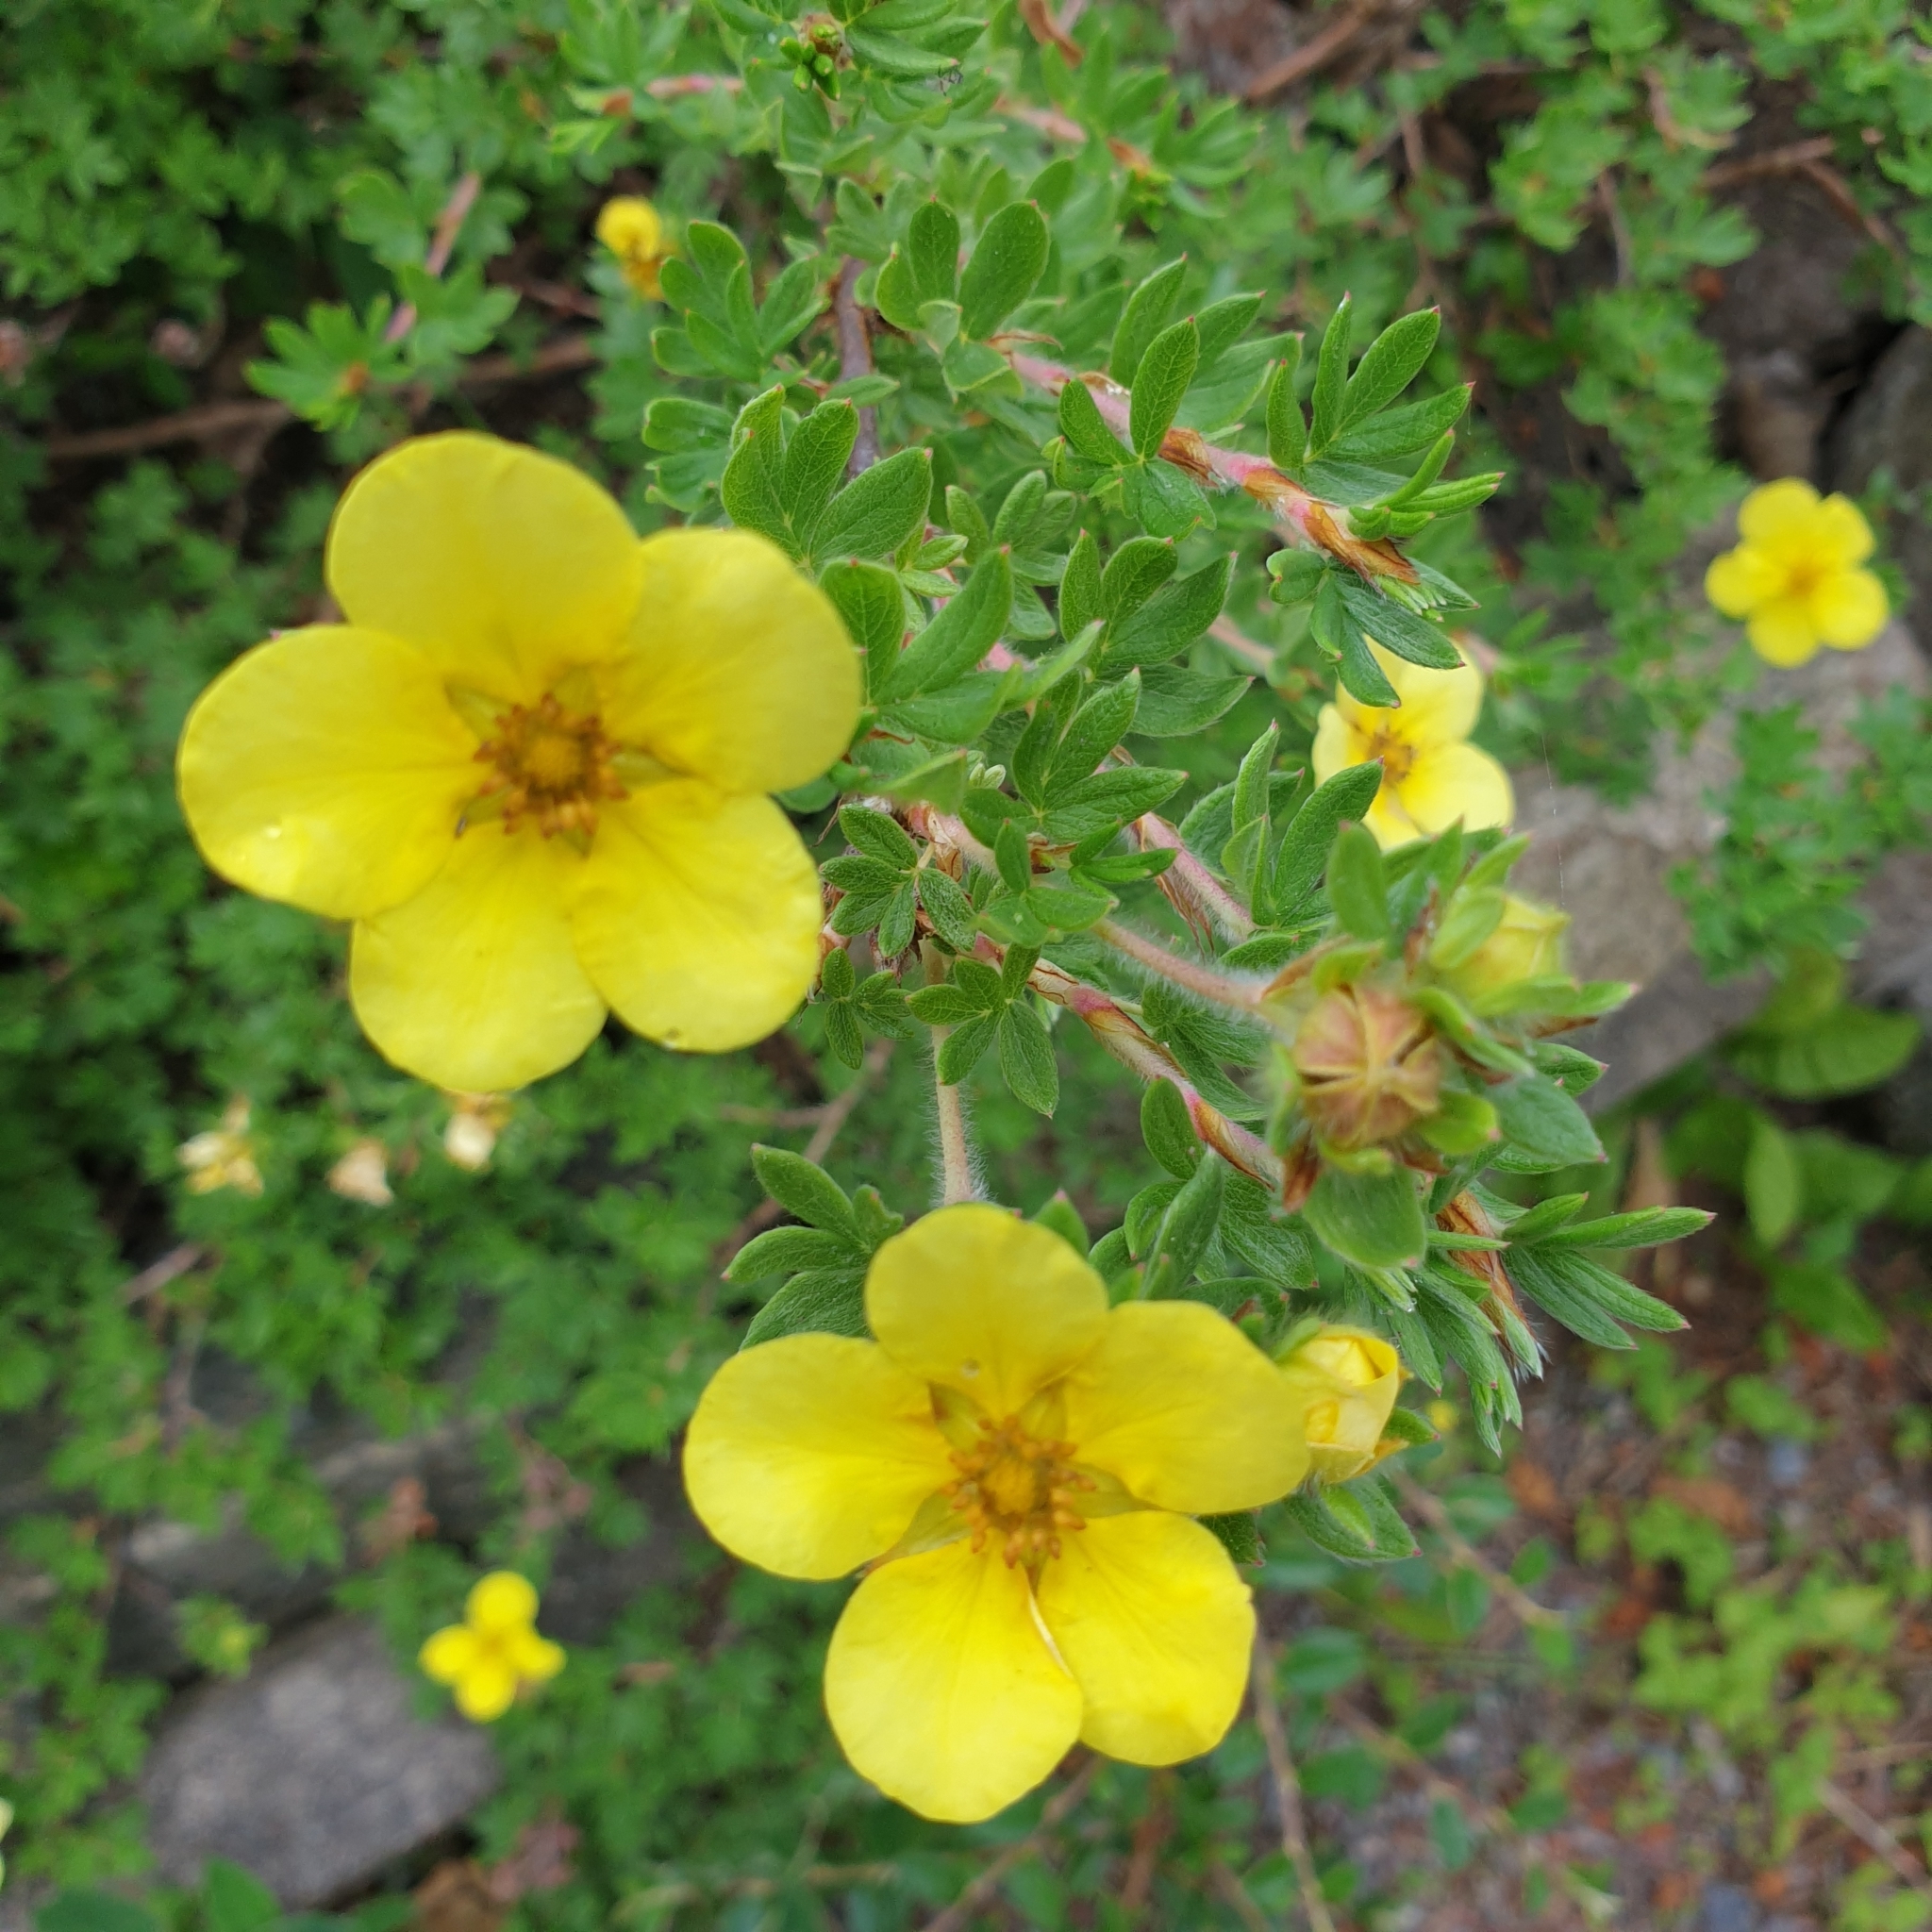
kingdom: Plantae
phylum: Tracheophyta
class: Magnoliopsida
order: Rosales
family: Rosaceae
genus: Dasiphora
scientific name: Dasiphora fruticosa
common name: Shrubby cinquefoil
